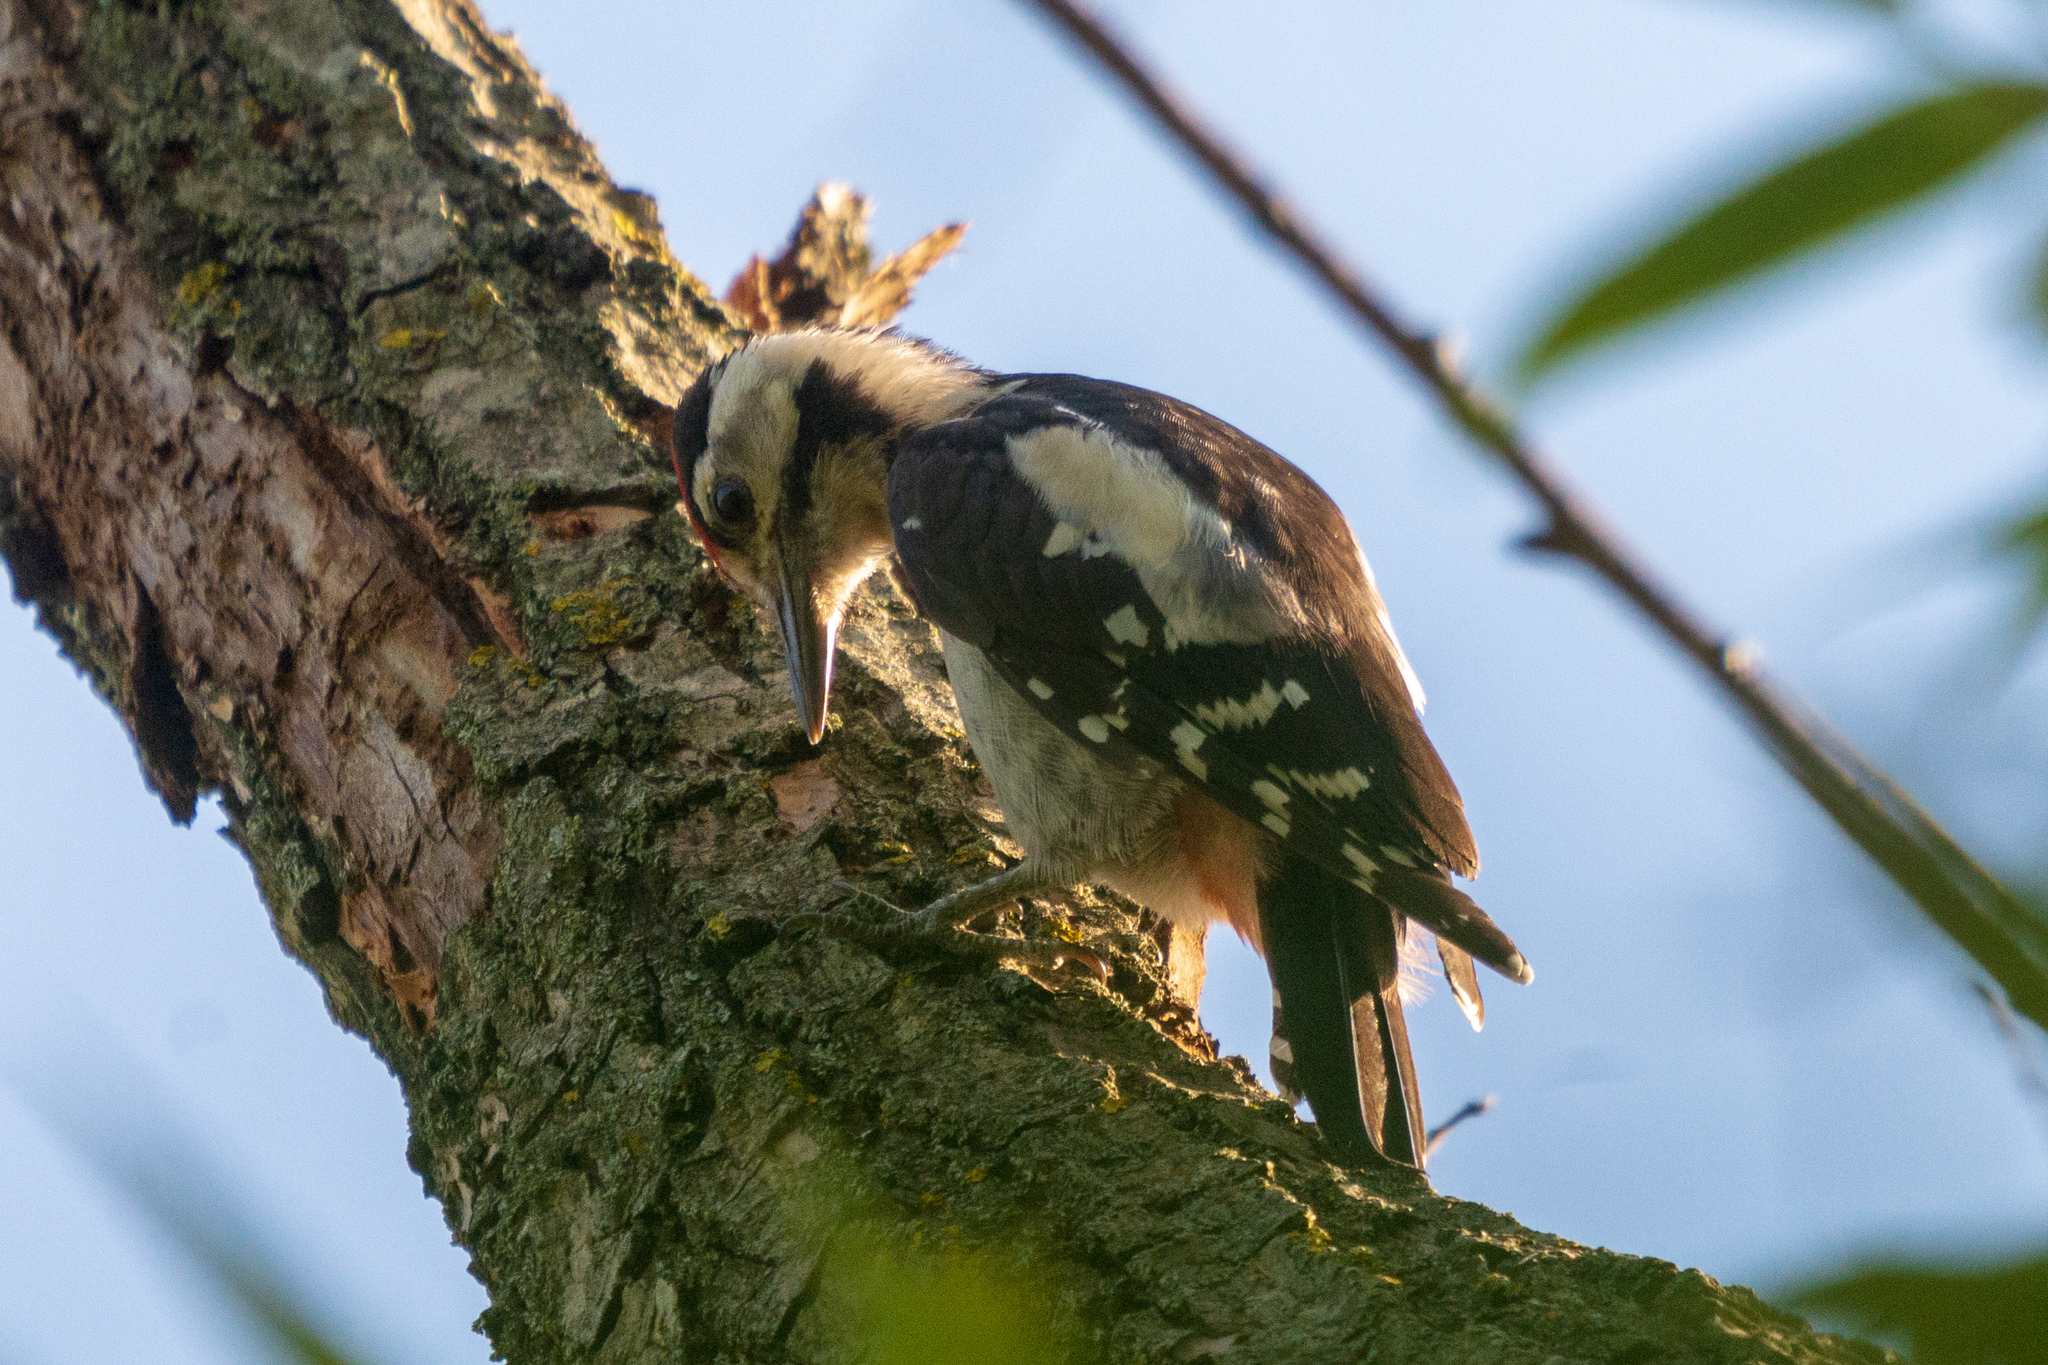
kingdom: Animalia
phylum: Chordata
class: Aves
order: Piciformes
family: Picidae
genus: Dendrocopos
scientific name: Dendrocopos syriacus
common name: Syrian woodpecker
